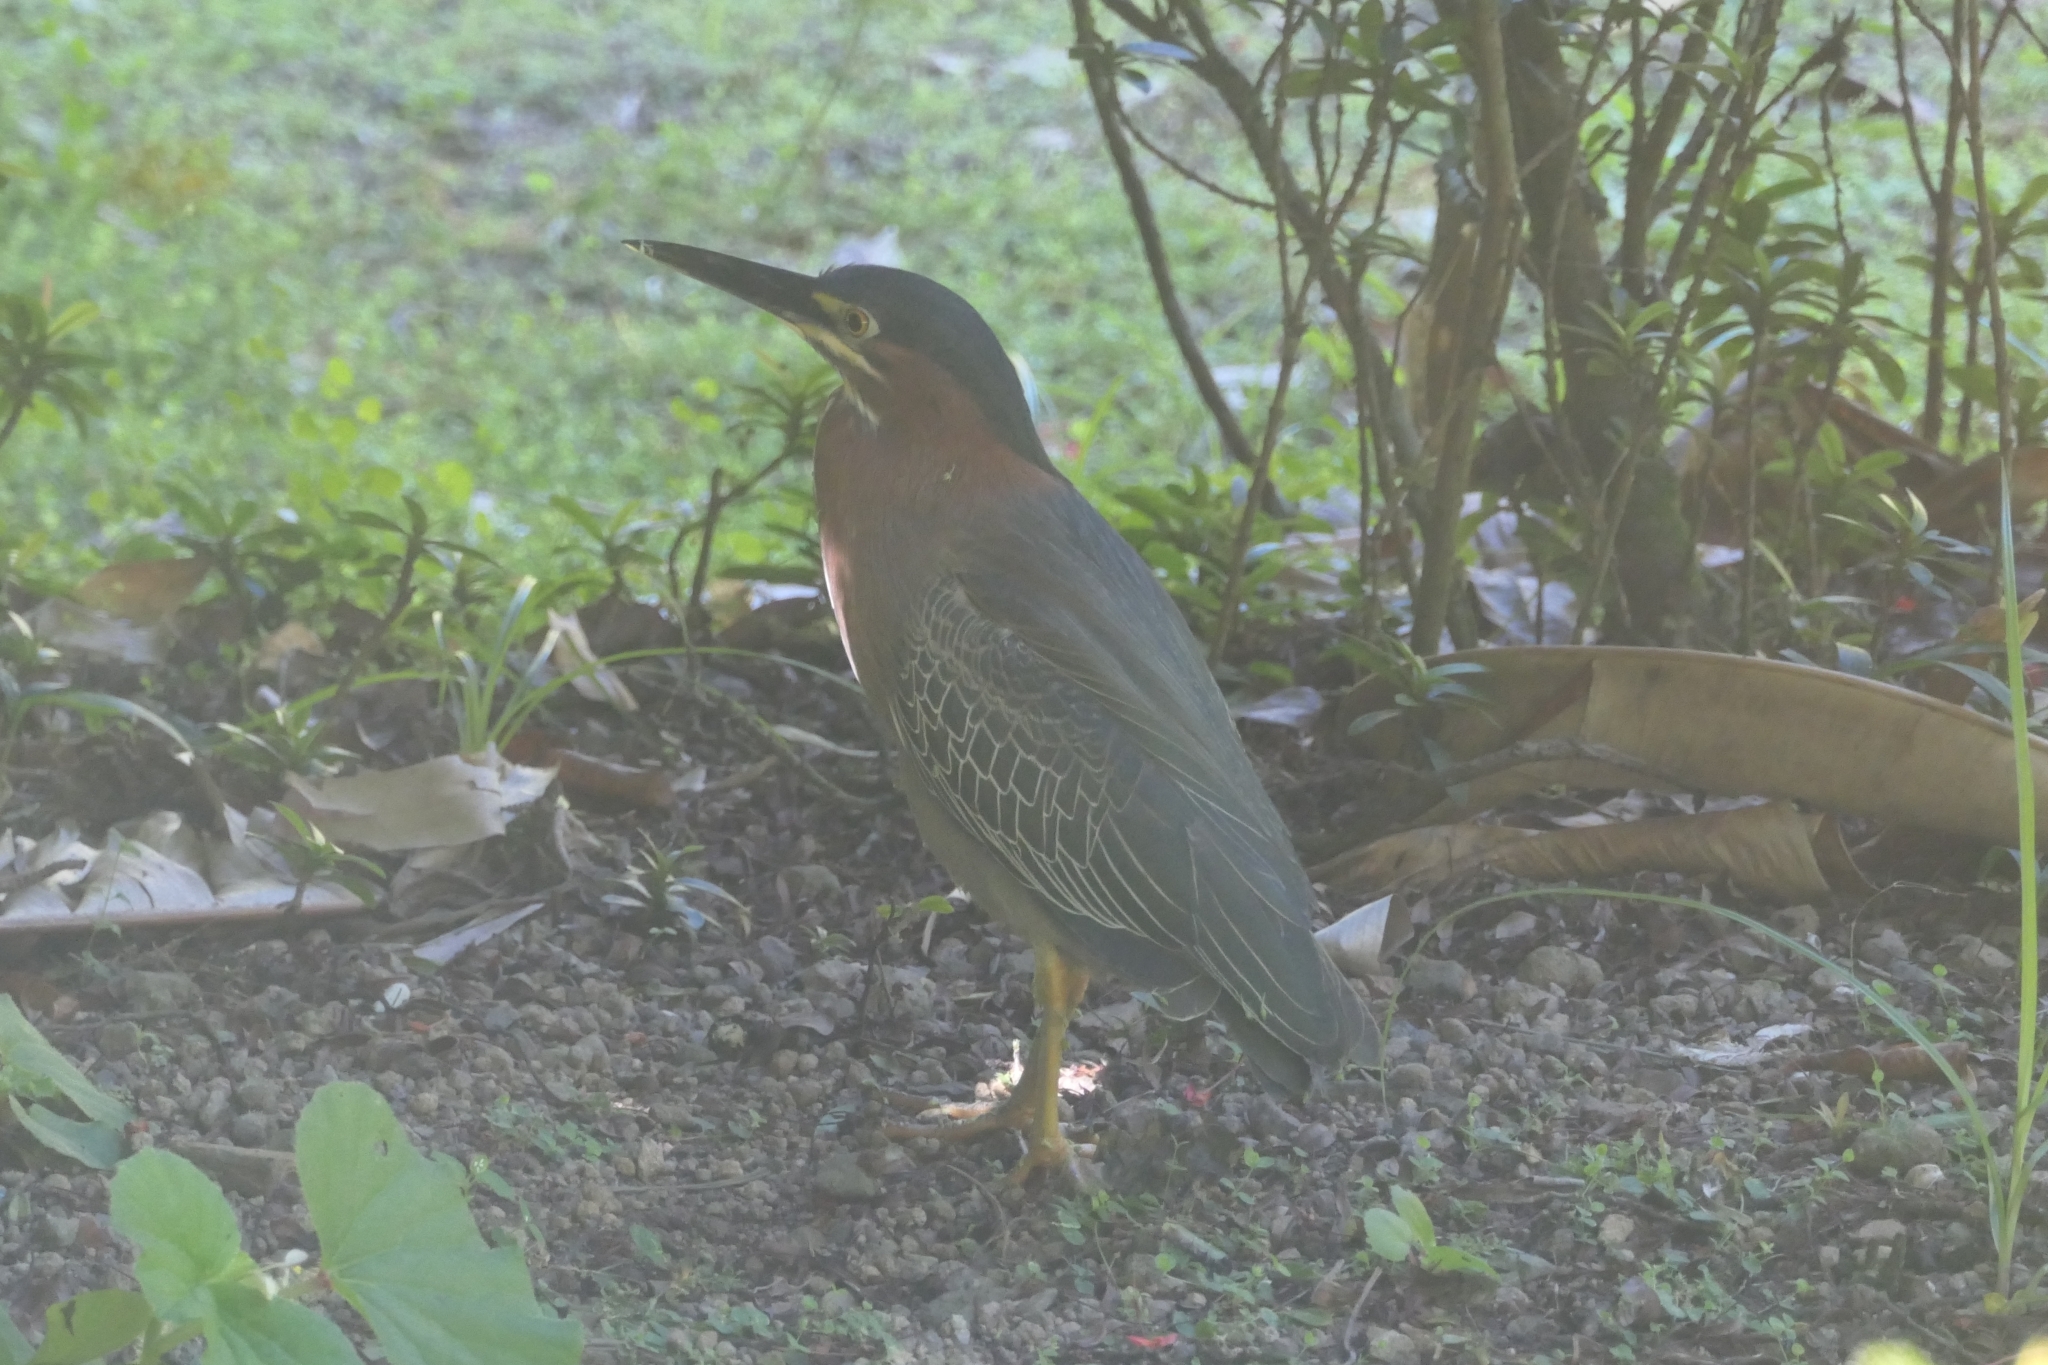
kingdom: Animalia
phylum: Chordata
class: Aves
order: Pelecaniformes
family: Ardeidae
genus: Butorides
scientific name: Butorides virescens
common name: Green heron
